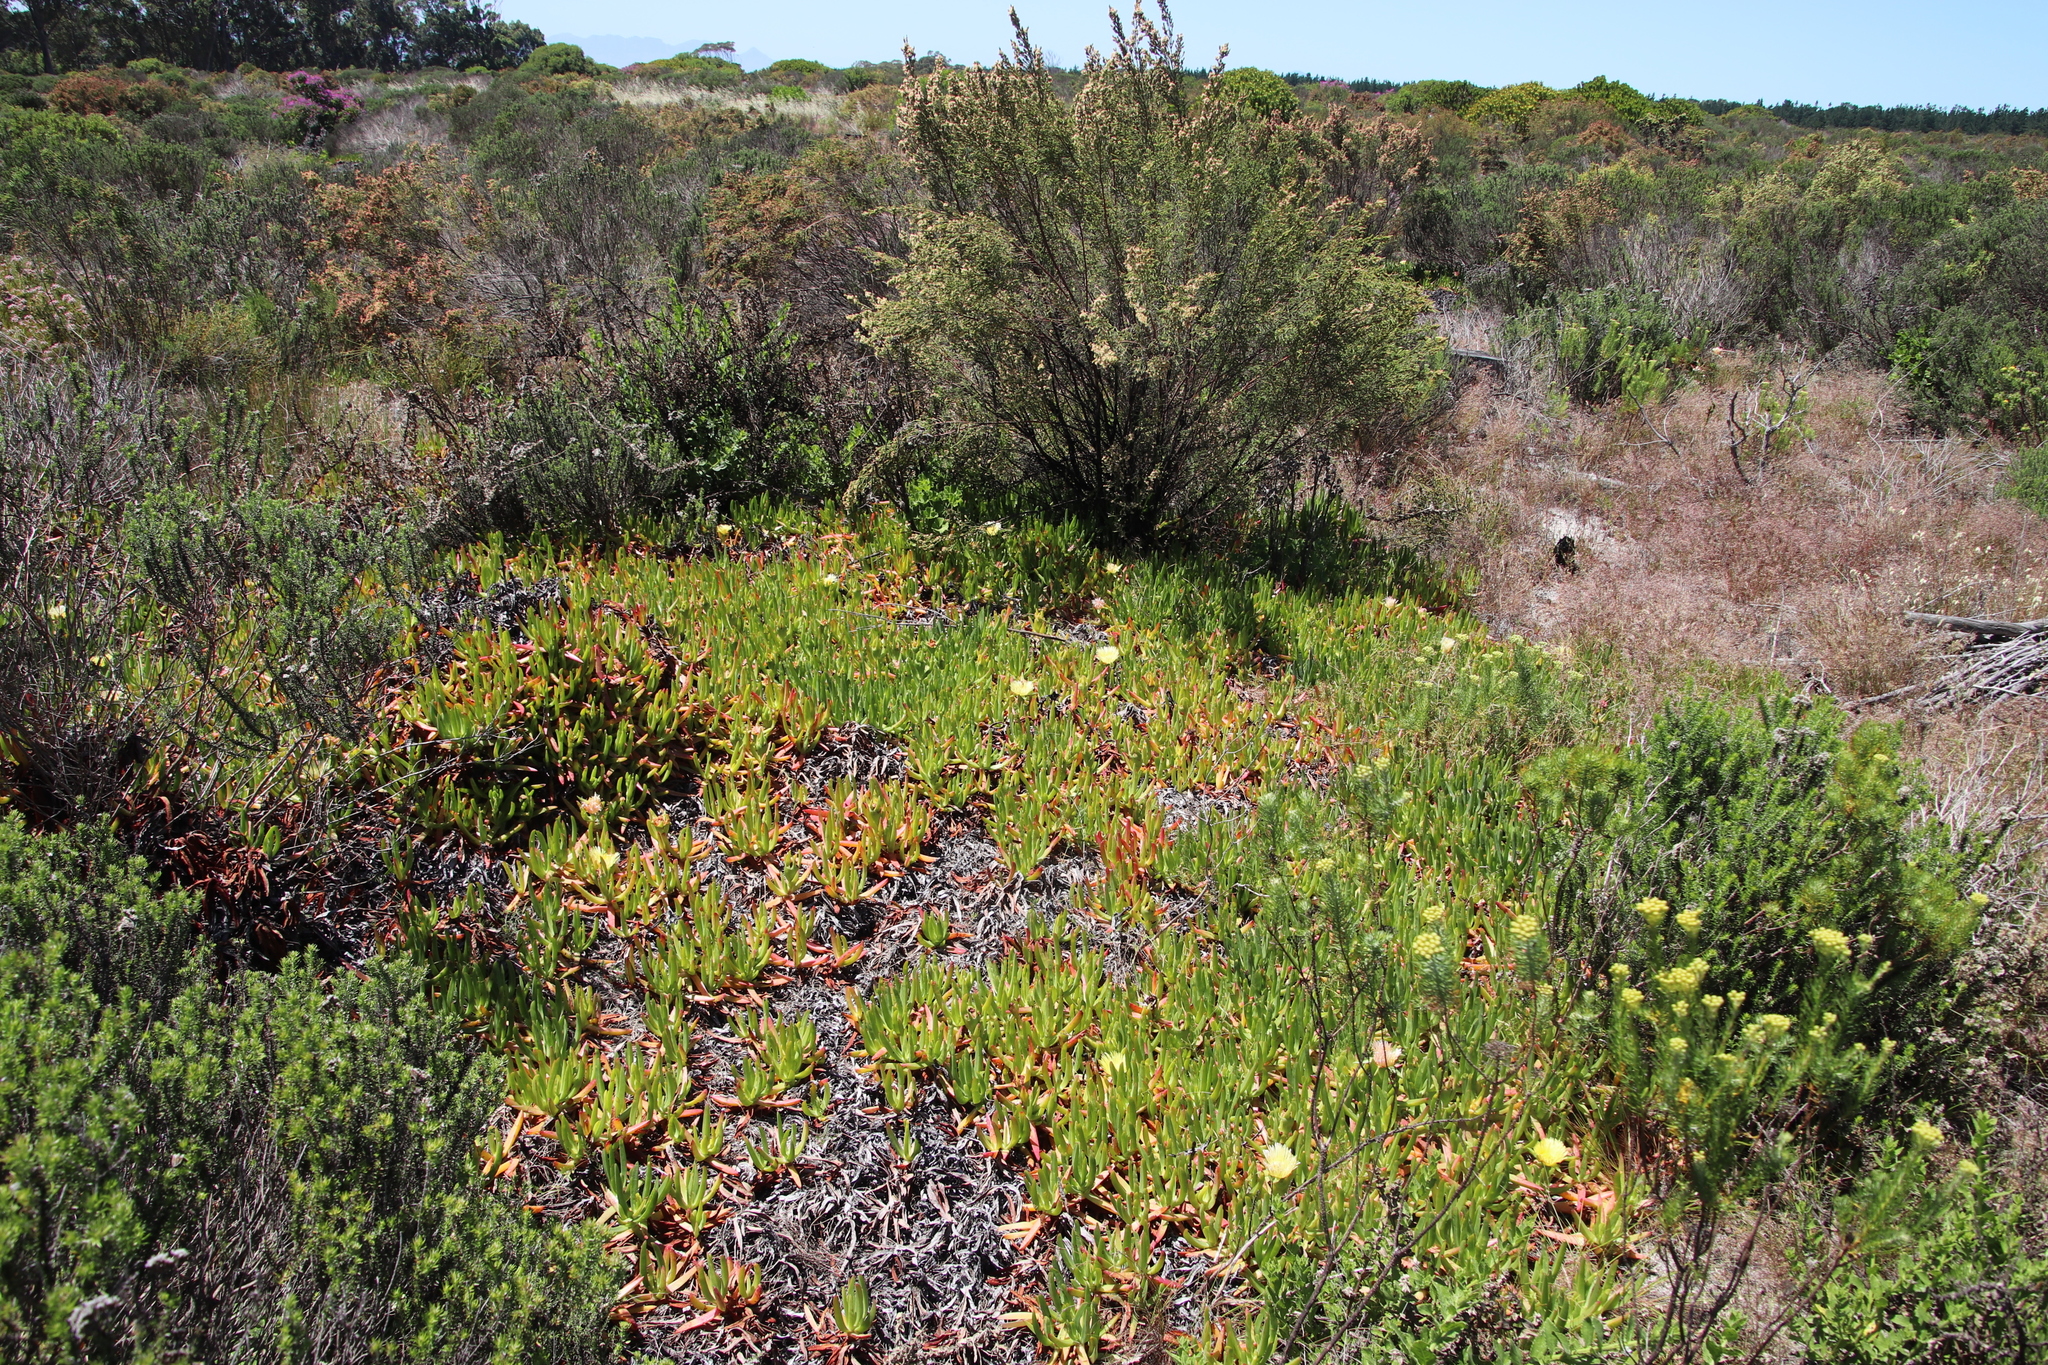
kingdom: Plantae
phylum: Tracheophyta
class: Magnoliopsida
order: Caryophyllales
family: Aizoaceae
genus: Carpobrotus
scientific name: Carpobrotus edulis
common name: Hottentot-fig
